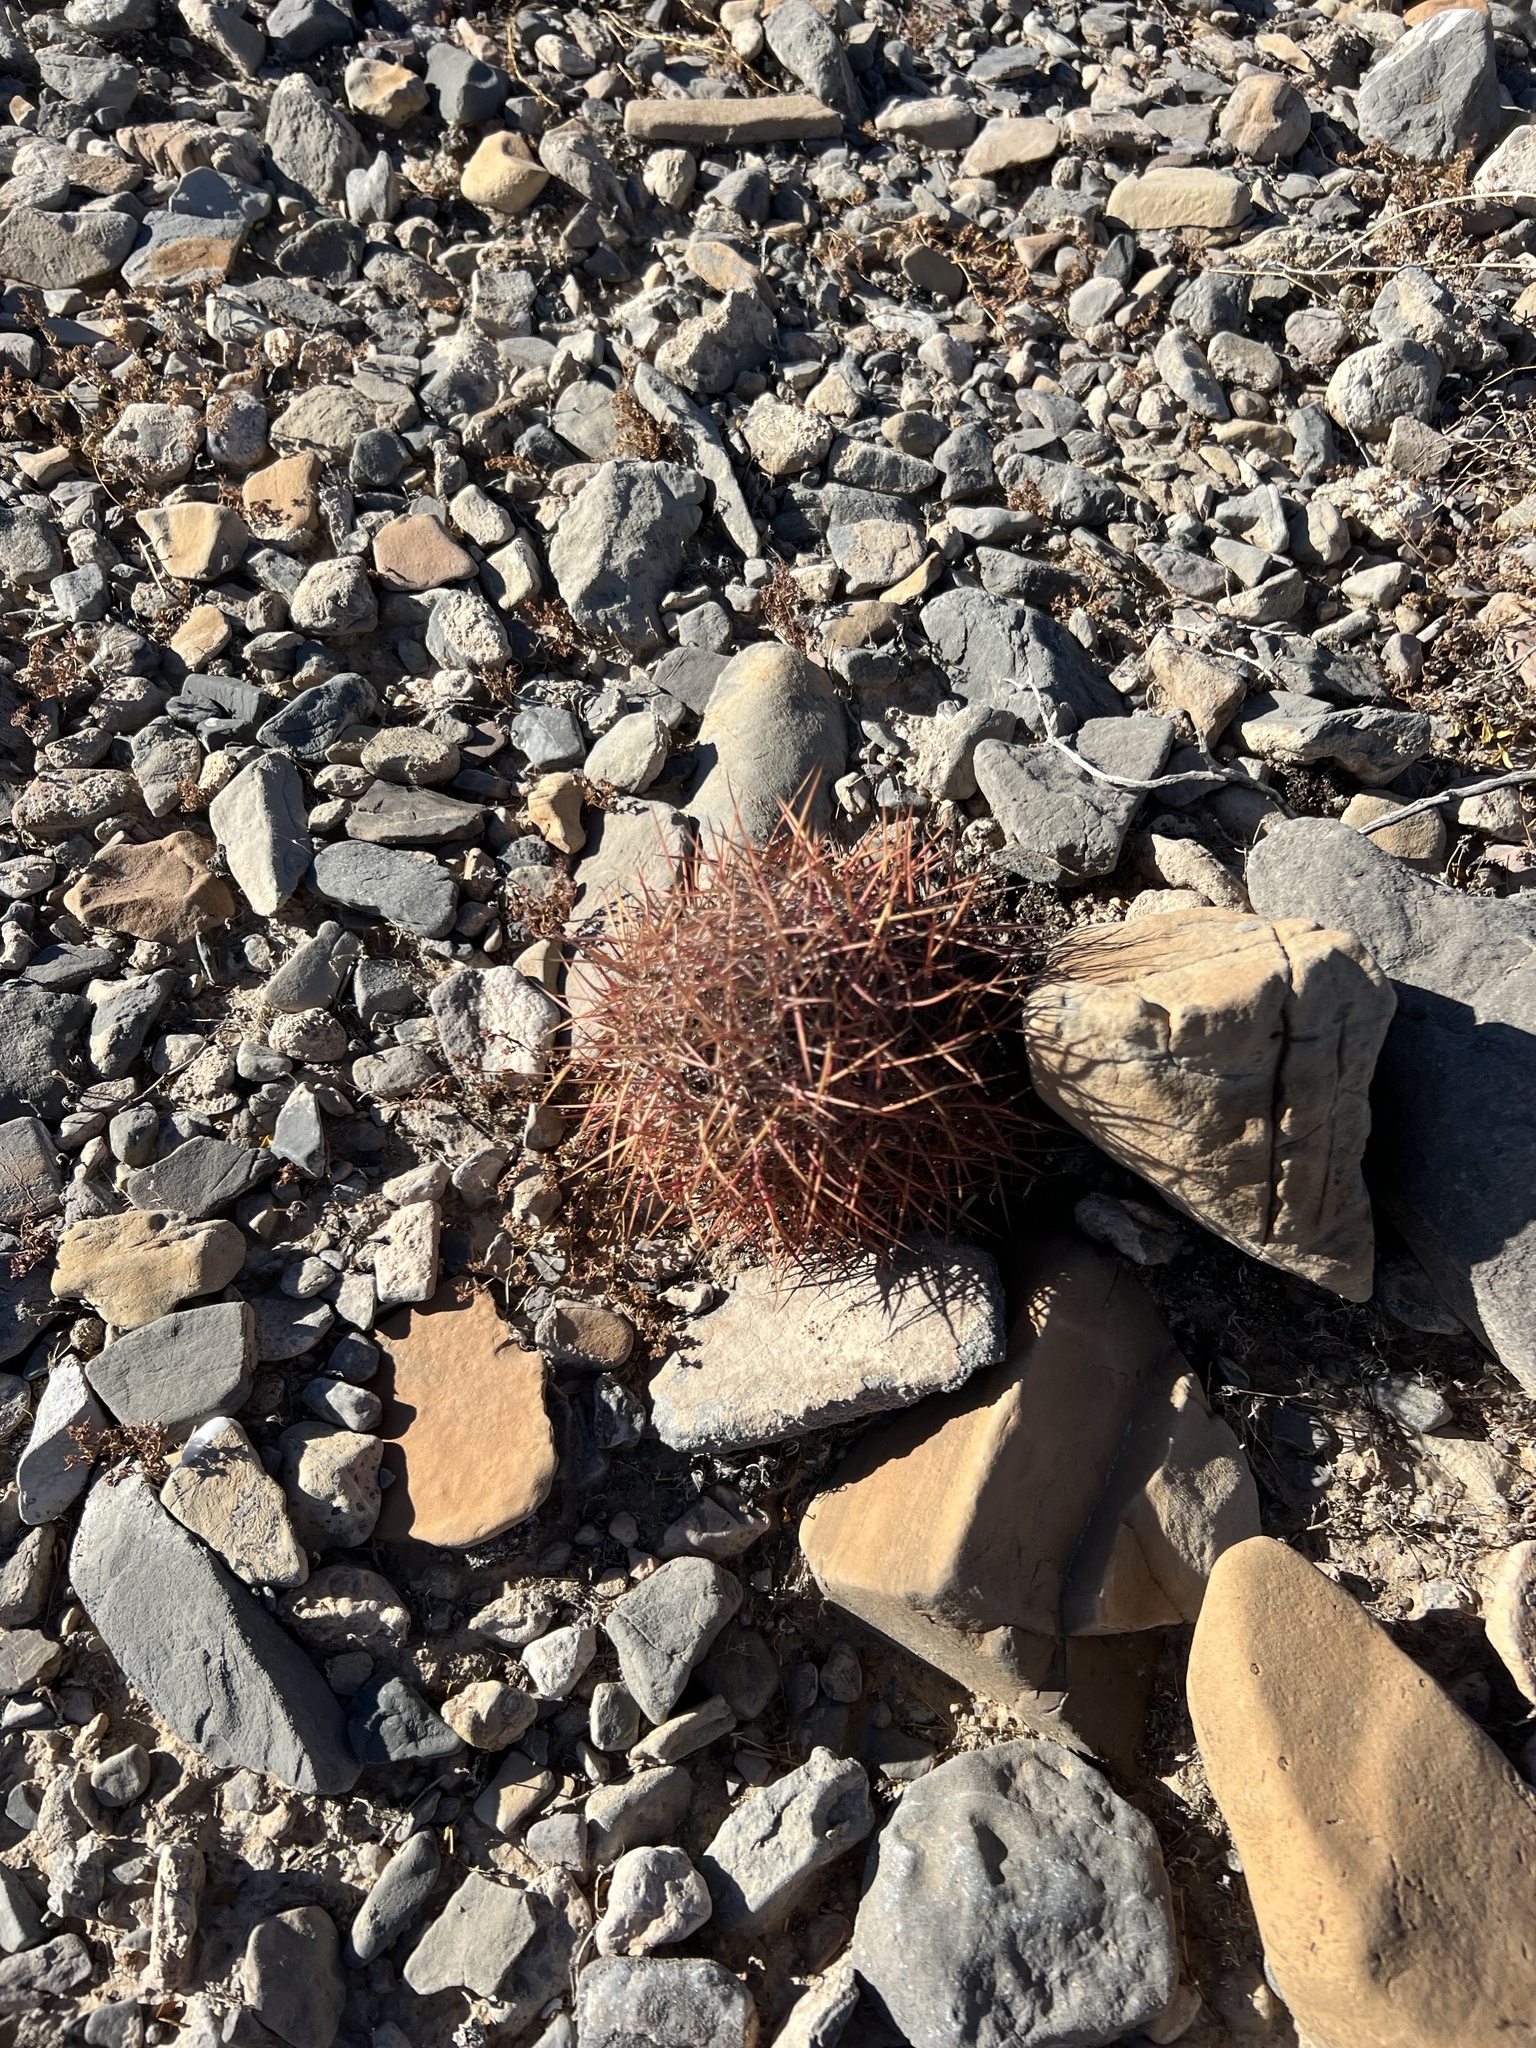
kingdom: Plantae
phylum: Tracheophyta
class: Magnoliopsida
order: Caryophyllales
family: Cactaceae
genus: Sclerocactus
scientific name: Sclerocactus johnsonii
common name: Eight-spine fishhook cactus
